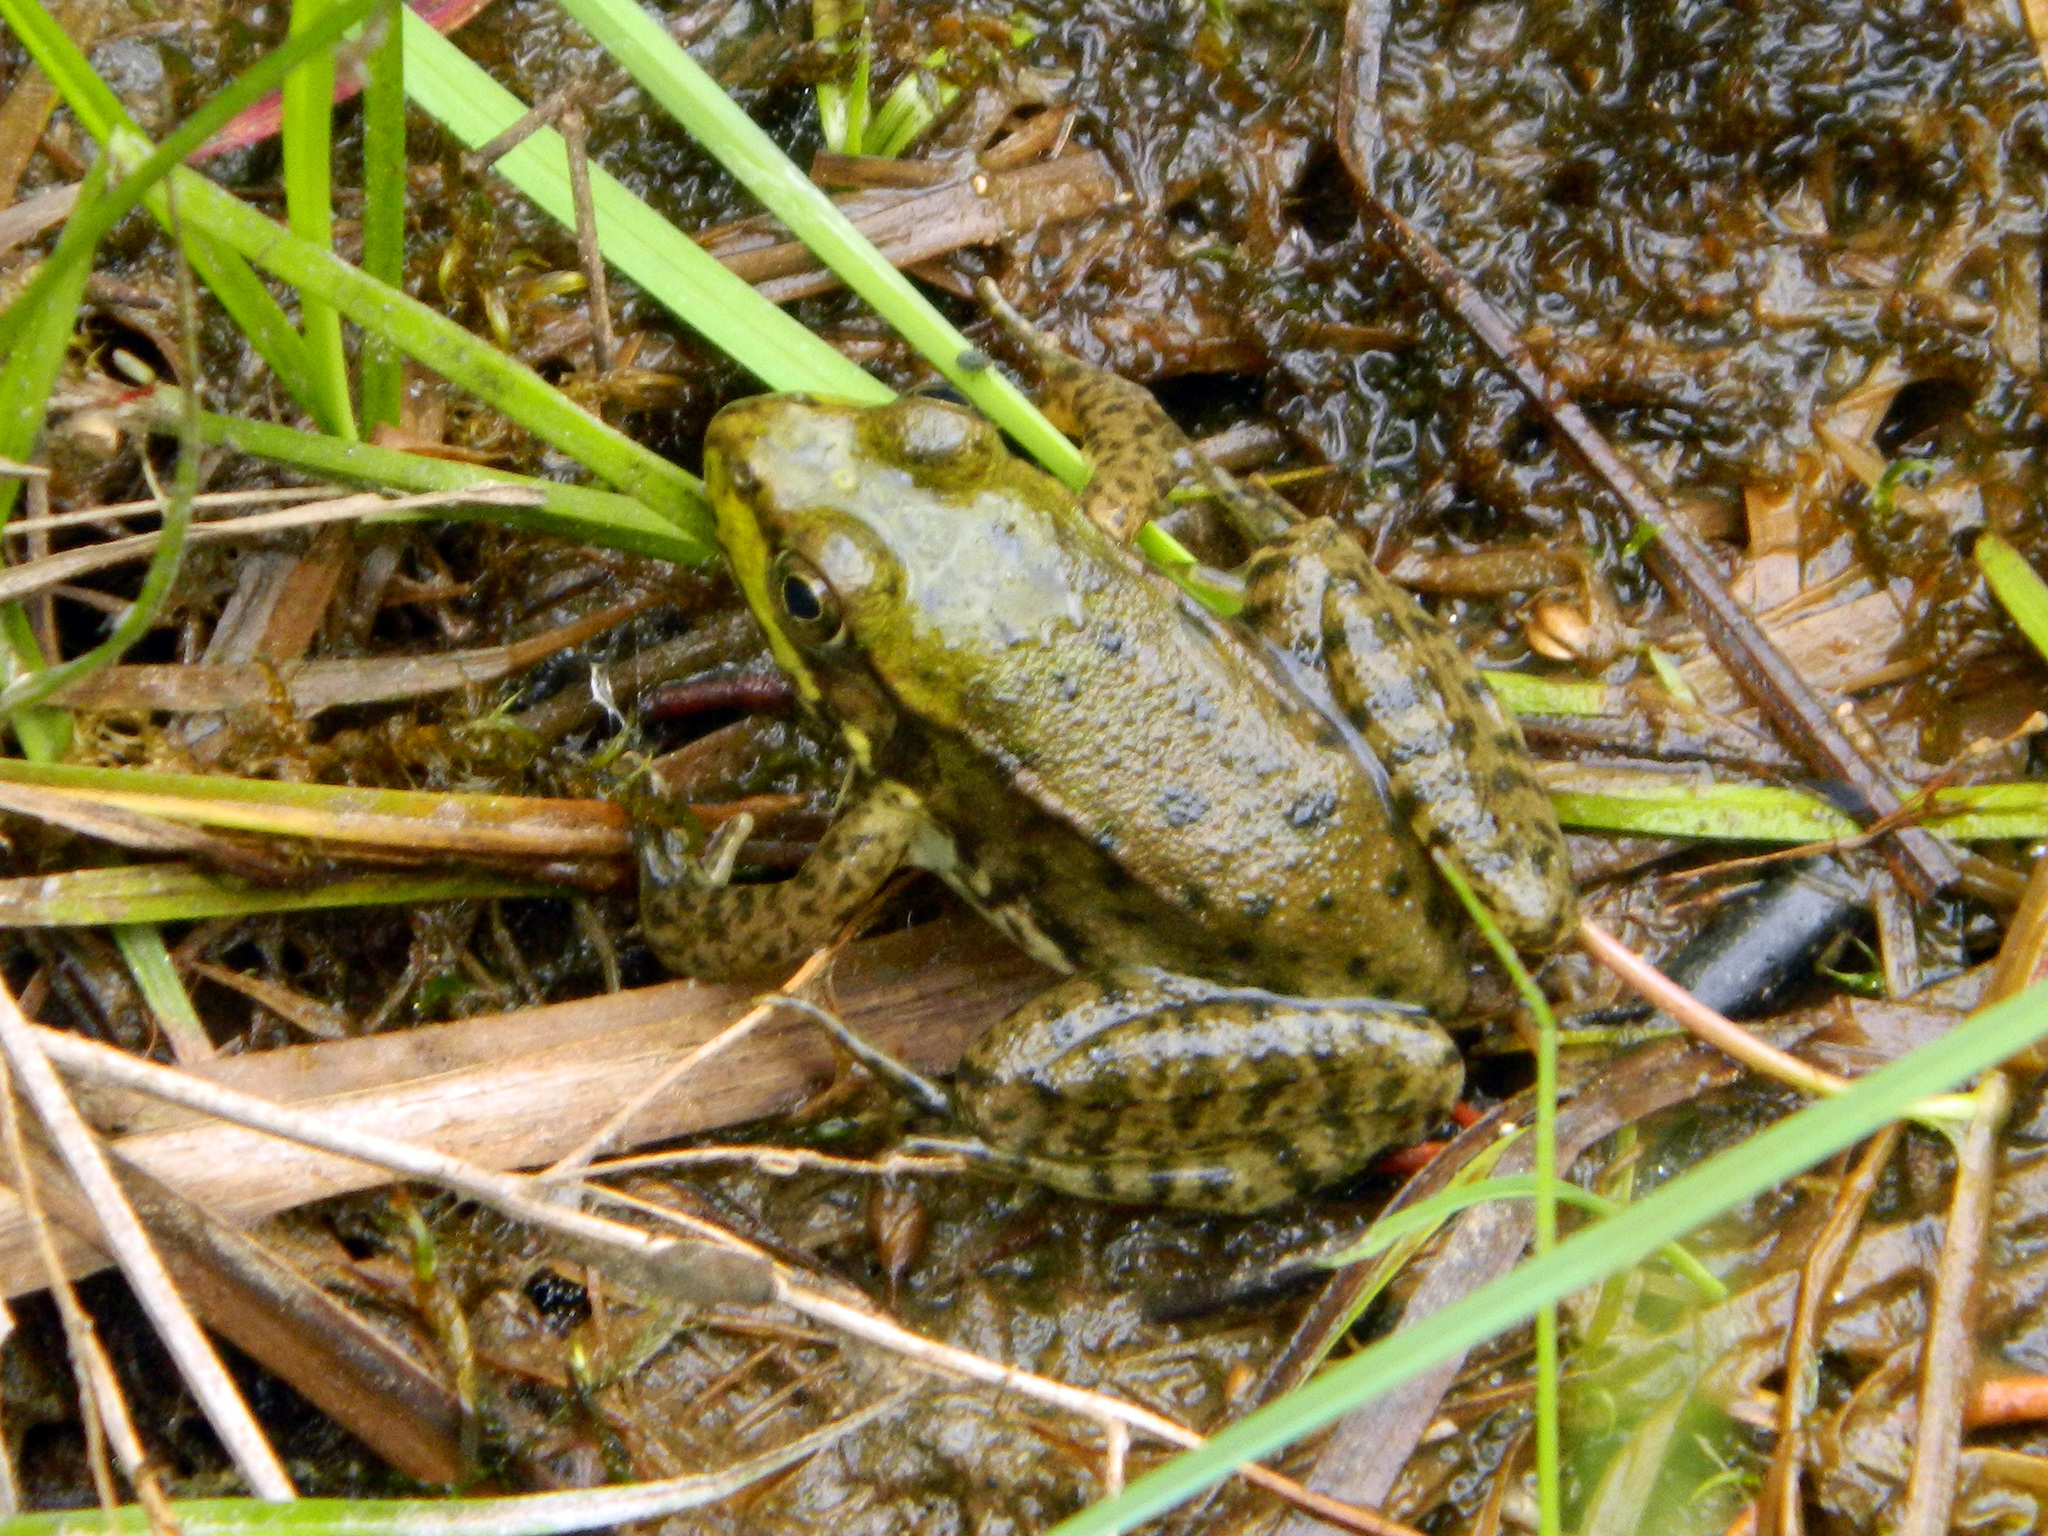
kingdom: Animalia
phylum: Chordata
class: Amphibia
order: Anura
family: Ranidae
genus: Lithobates
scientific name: Lithobates clamitans
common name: Green frog
